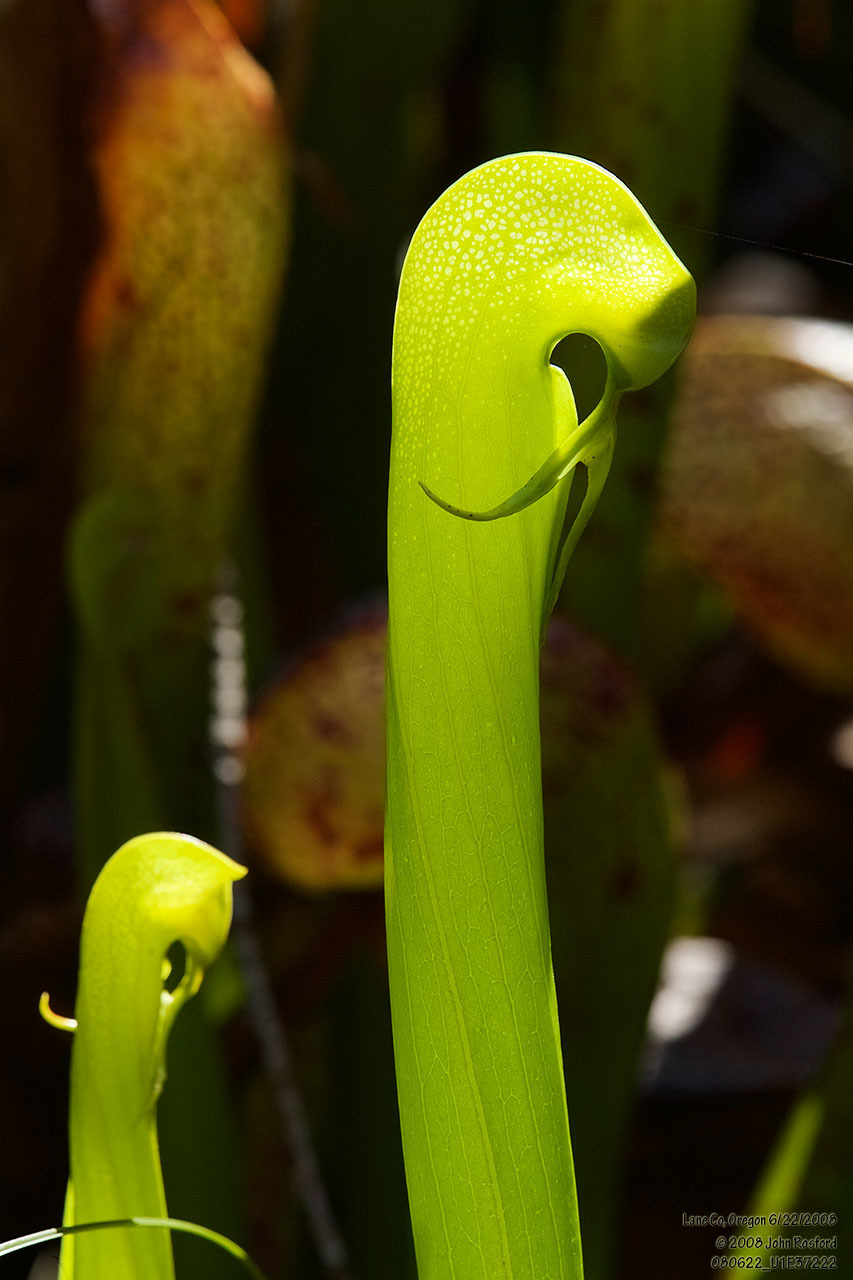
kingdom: Plantae
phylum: Tracheophyta
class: Magnoliopsida
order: Ericales
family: Sarraceniaceae
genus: Darlingtonia
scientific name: Darlingtonia californica
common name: California pitcher plant
